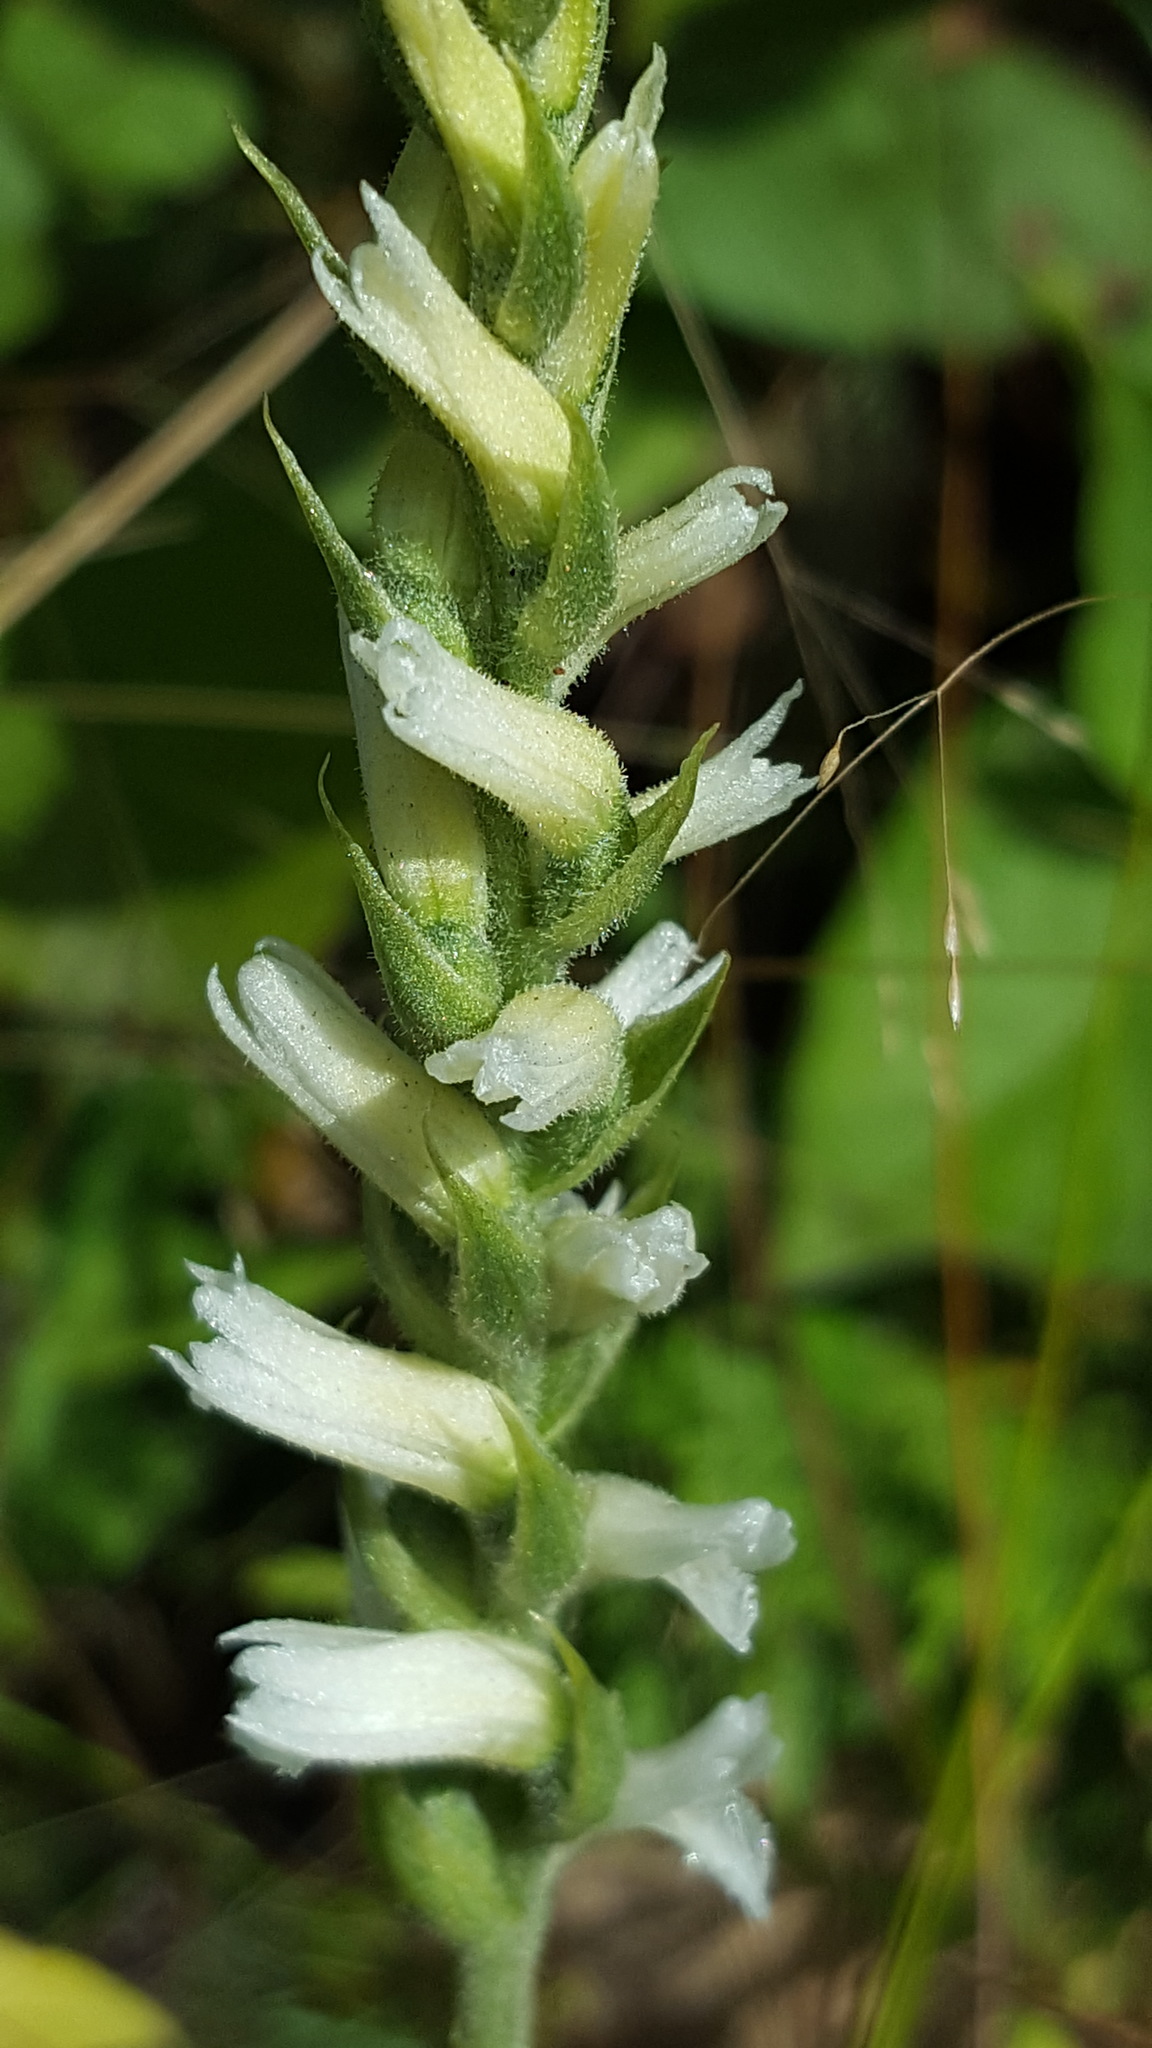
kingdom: Plantae
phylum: Tracheophyta
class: Liliopsida
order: Asparagales
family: Orchidaceae
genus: Spiranthes
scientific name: Spiranthes incurva
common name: Sphinx ladies'-tresses
